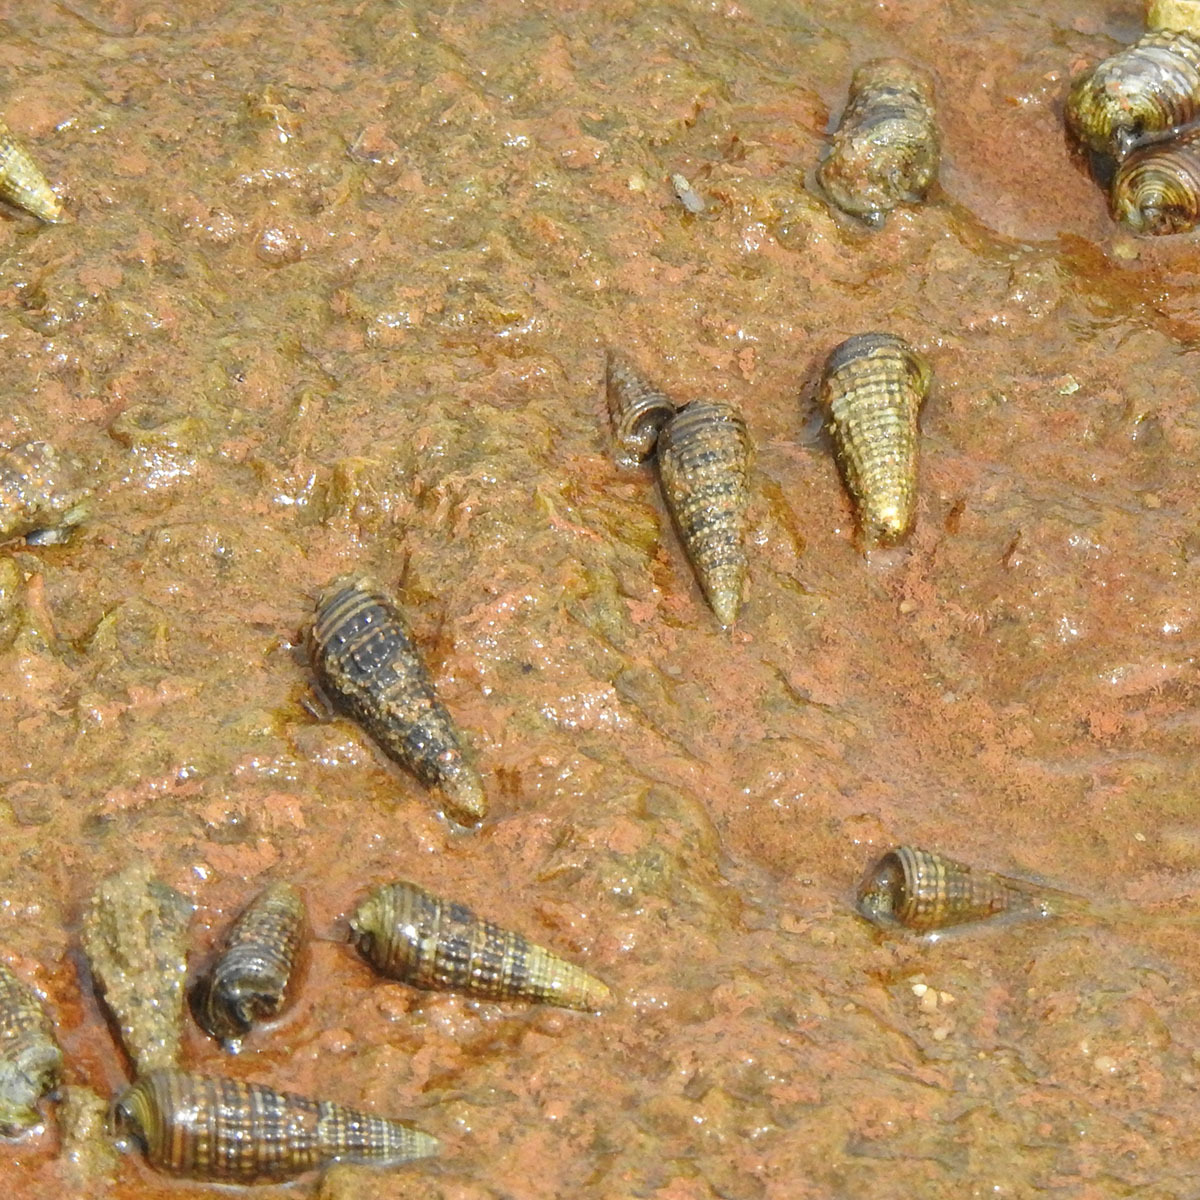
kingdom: Animalia
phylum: Mollusca
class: Gastropoda
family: Potamididae
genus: Pirenella
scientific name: Pirenella cingulata
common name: Girdled horn shell
